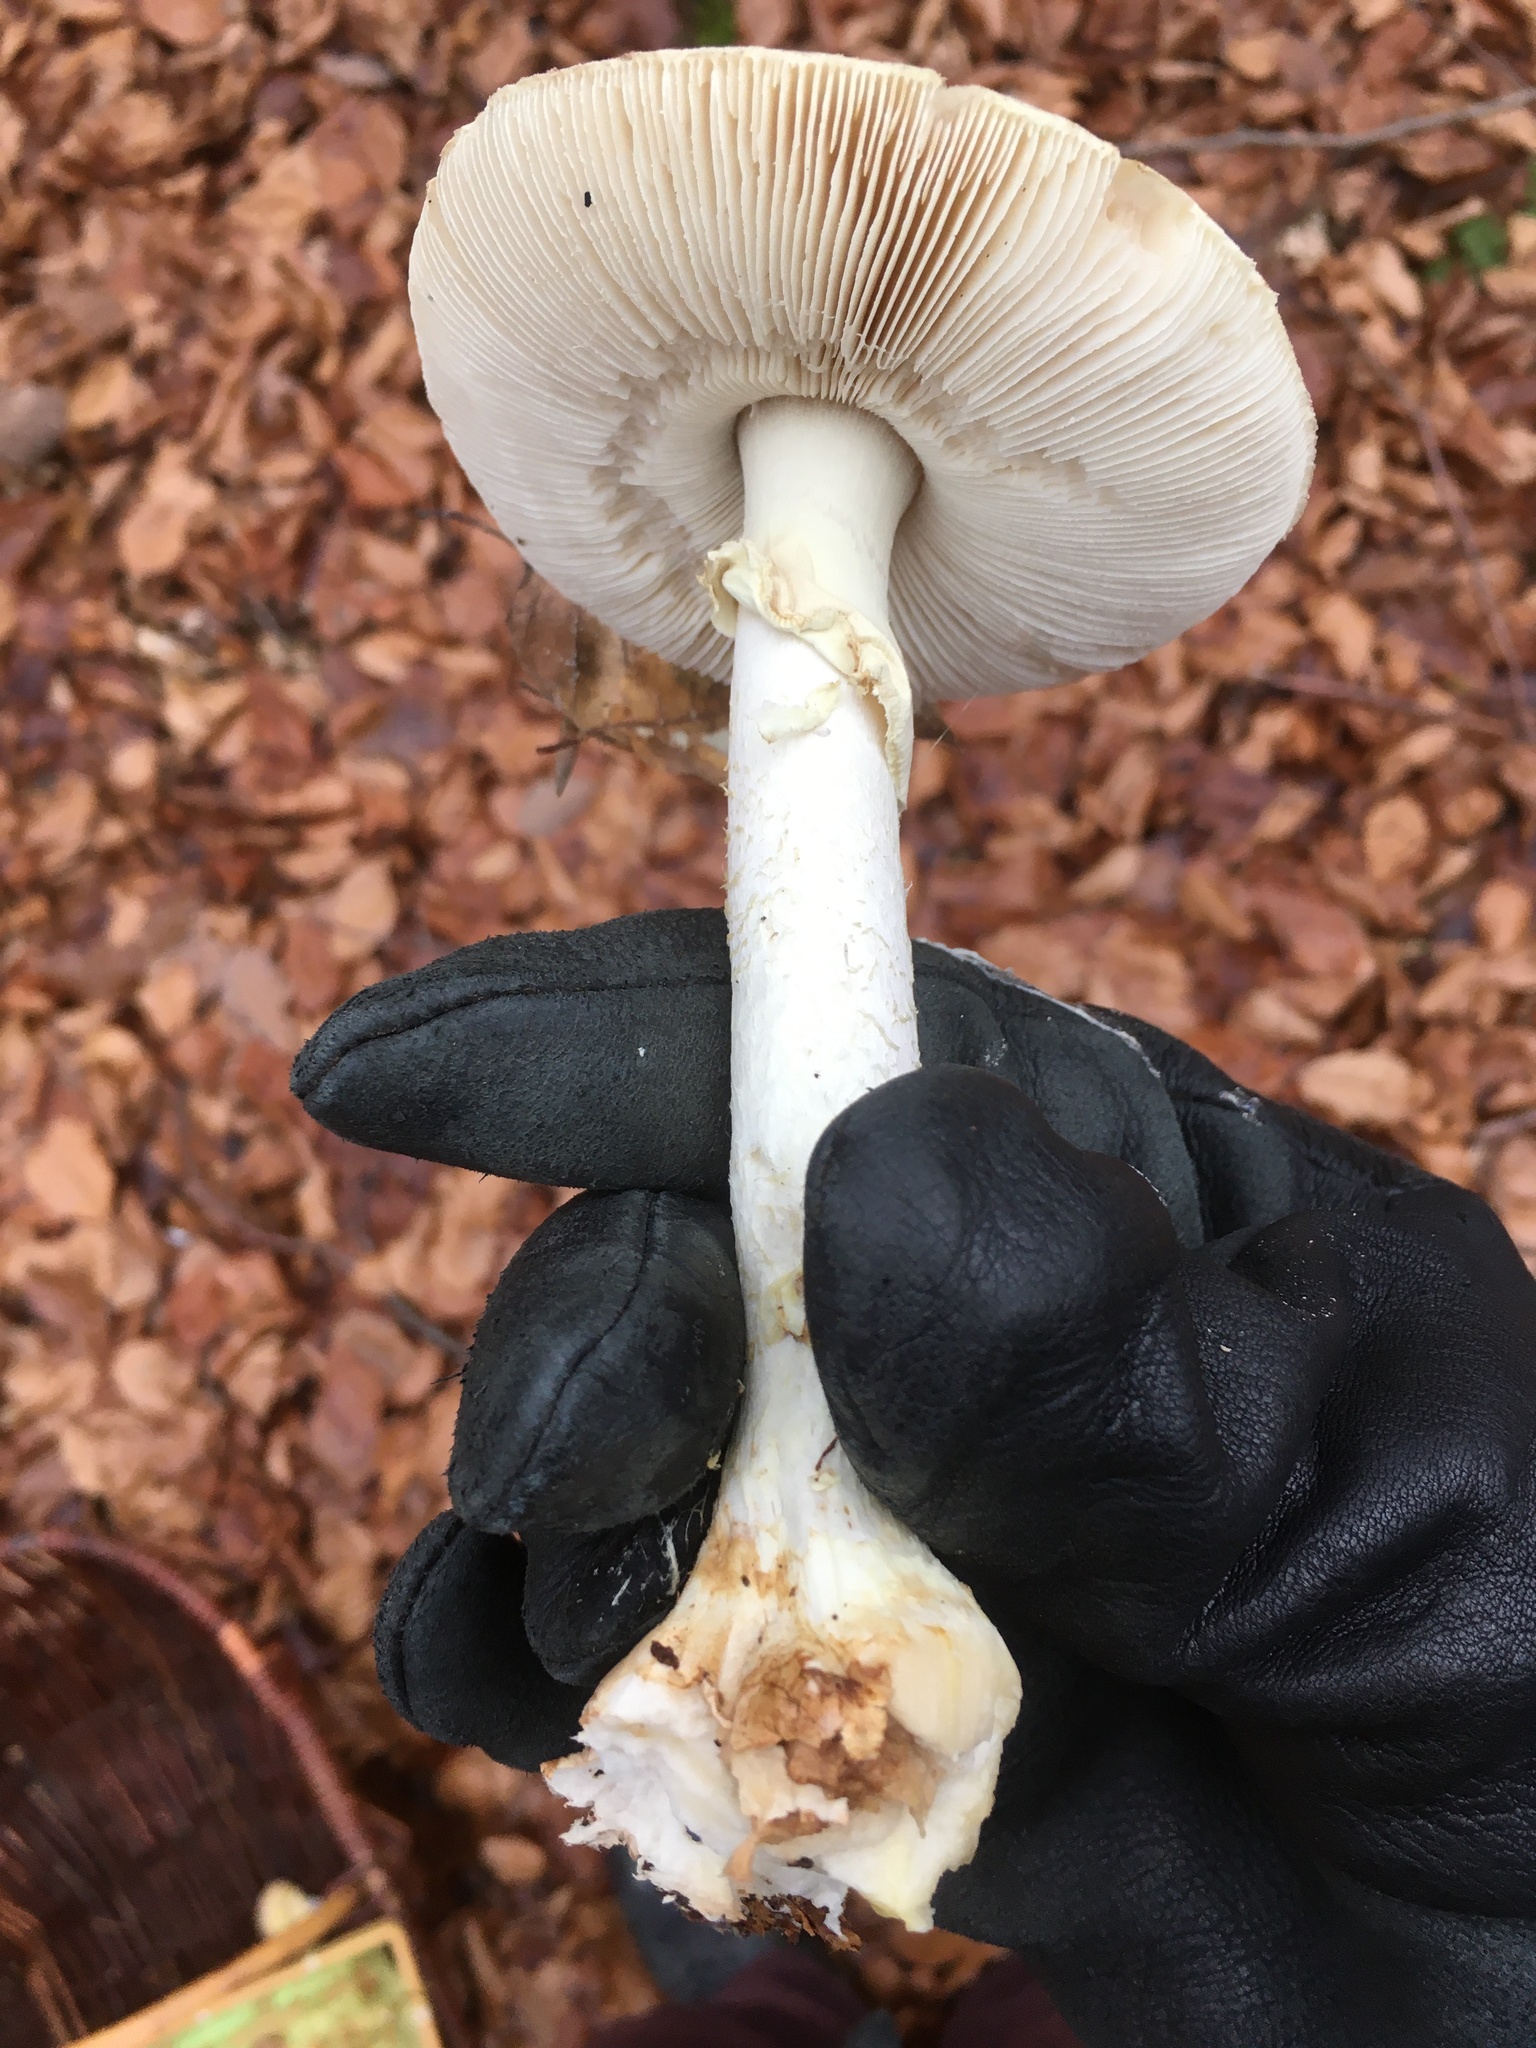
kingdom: Fungi
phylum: Basidiomycota
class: Agaricomycetes
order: Agaricales
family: Amanitaceae
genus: Amanita
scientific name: Amanita citrina
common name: False death-cap
